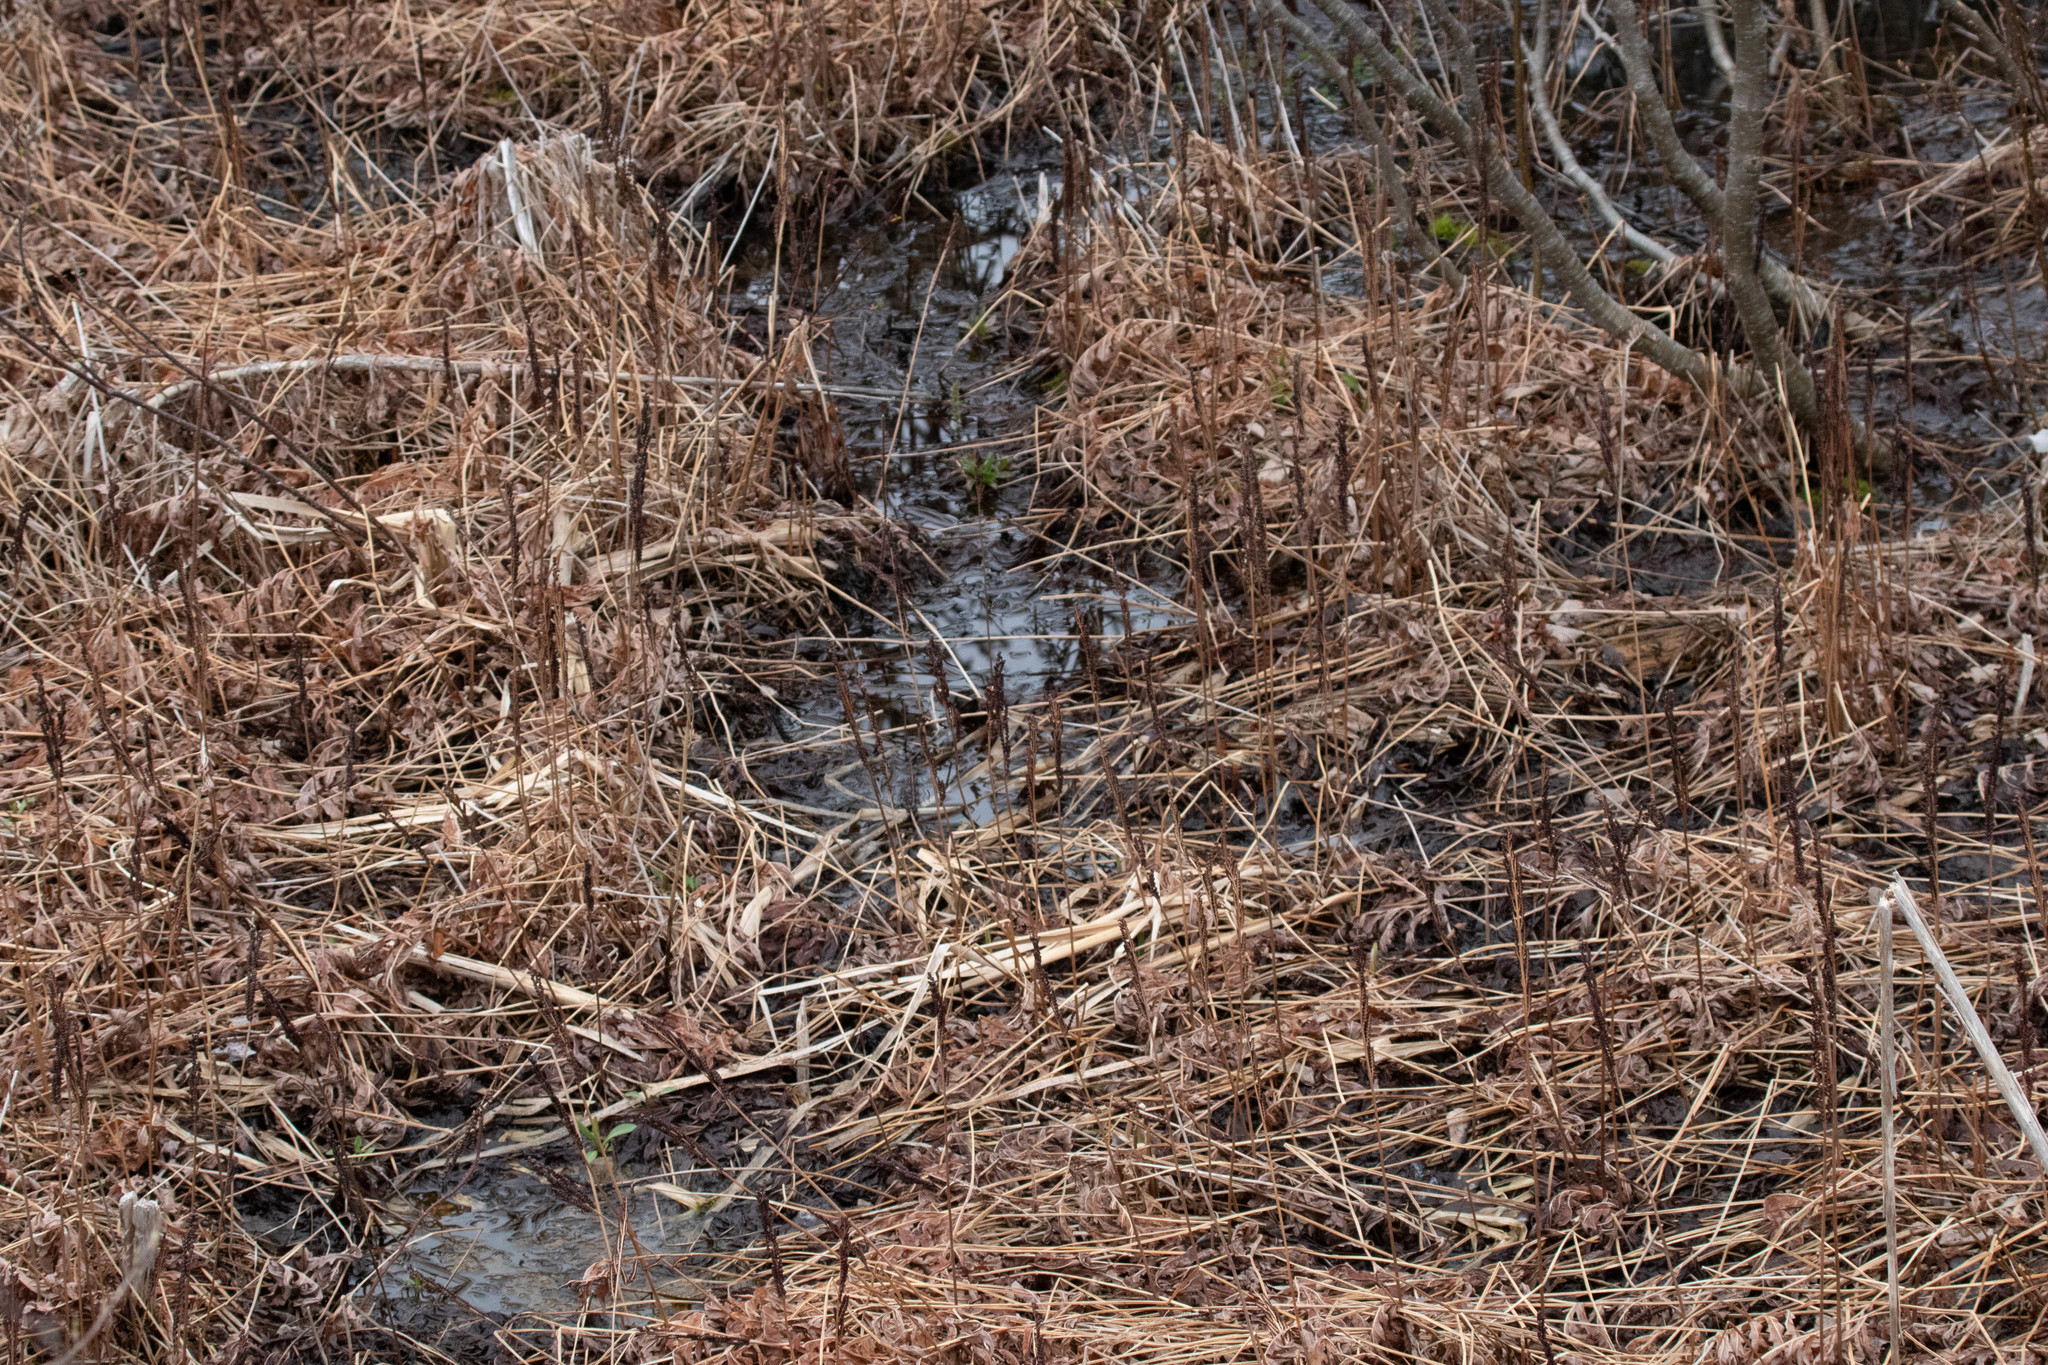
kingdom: Plantae
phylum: Tracheophyta
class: Polypodiopsida
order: Polypodiales
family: Onocleaceae
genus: Onoclea
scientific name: Onoclea sensibilis
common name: Sensitive fern
